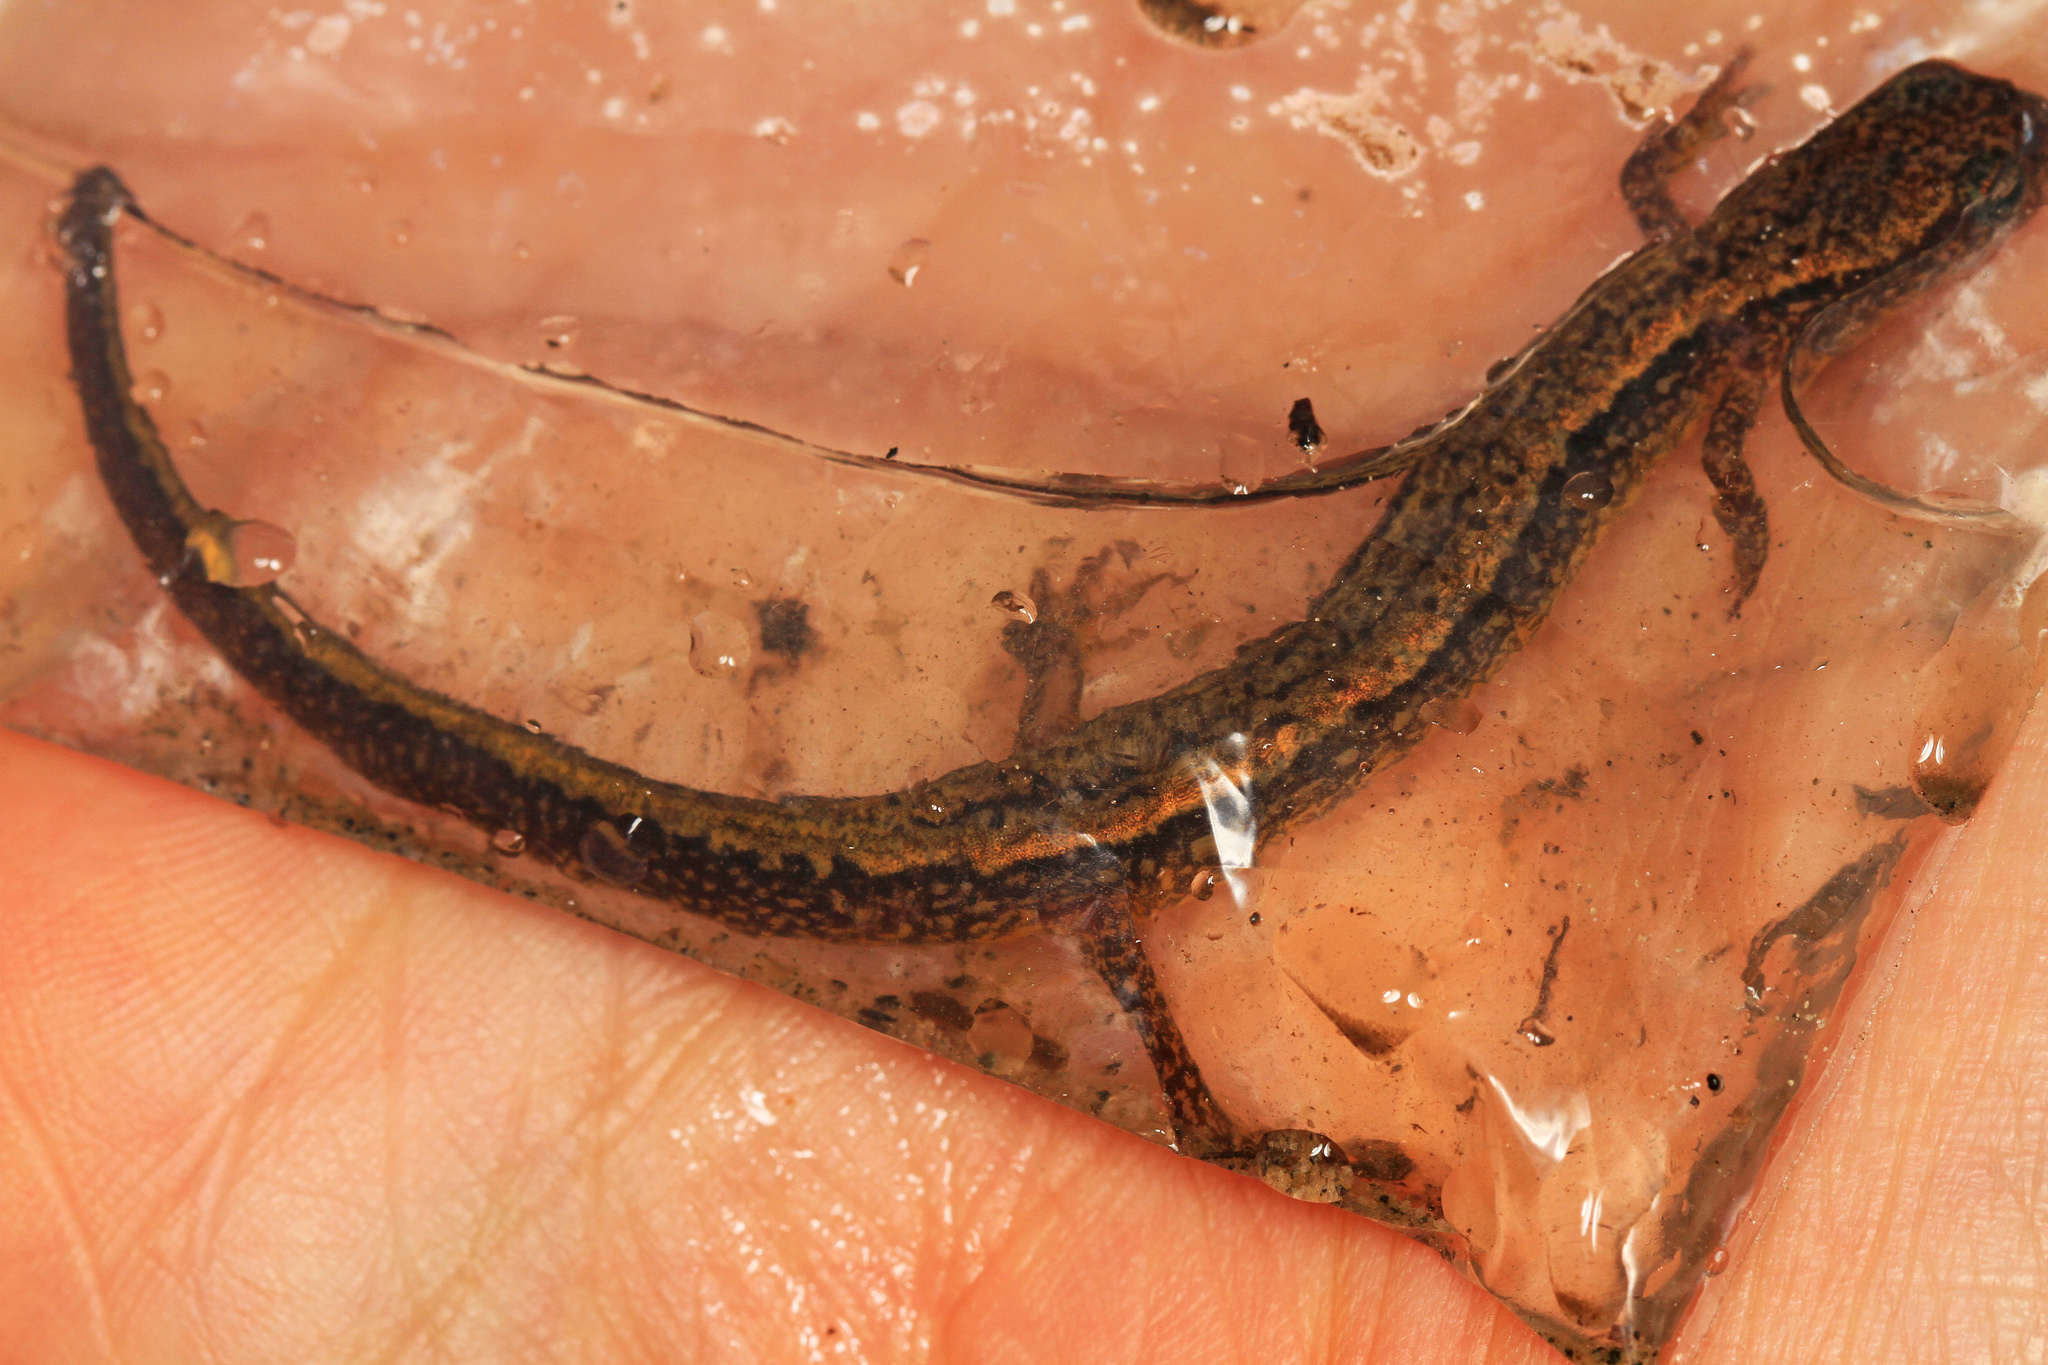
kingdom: Animalia
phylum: Chordata
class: Amphibia
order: Caudata
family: Plethodontidae
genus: Eurycea
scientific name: Eurycea bislineata
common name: Northern two-lined salamander
